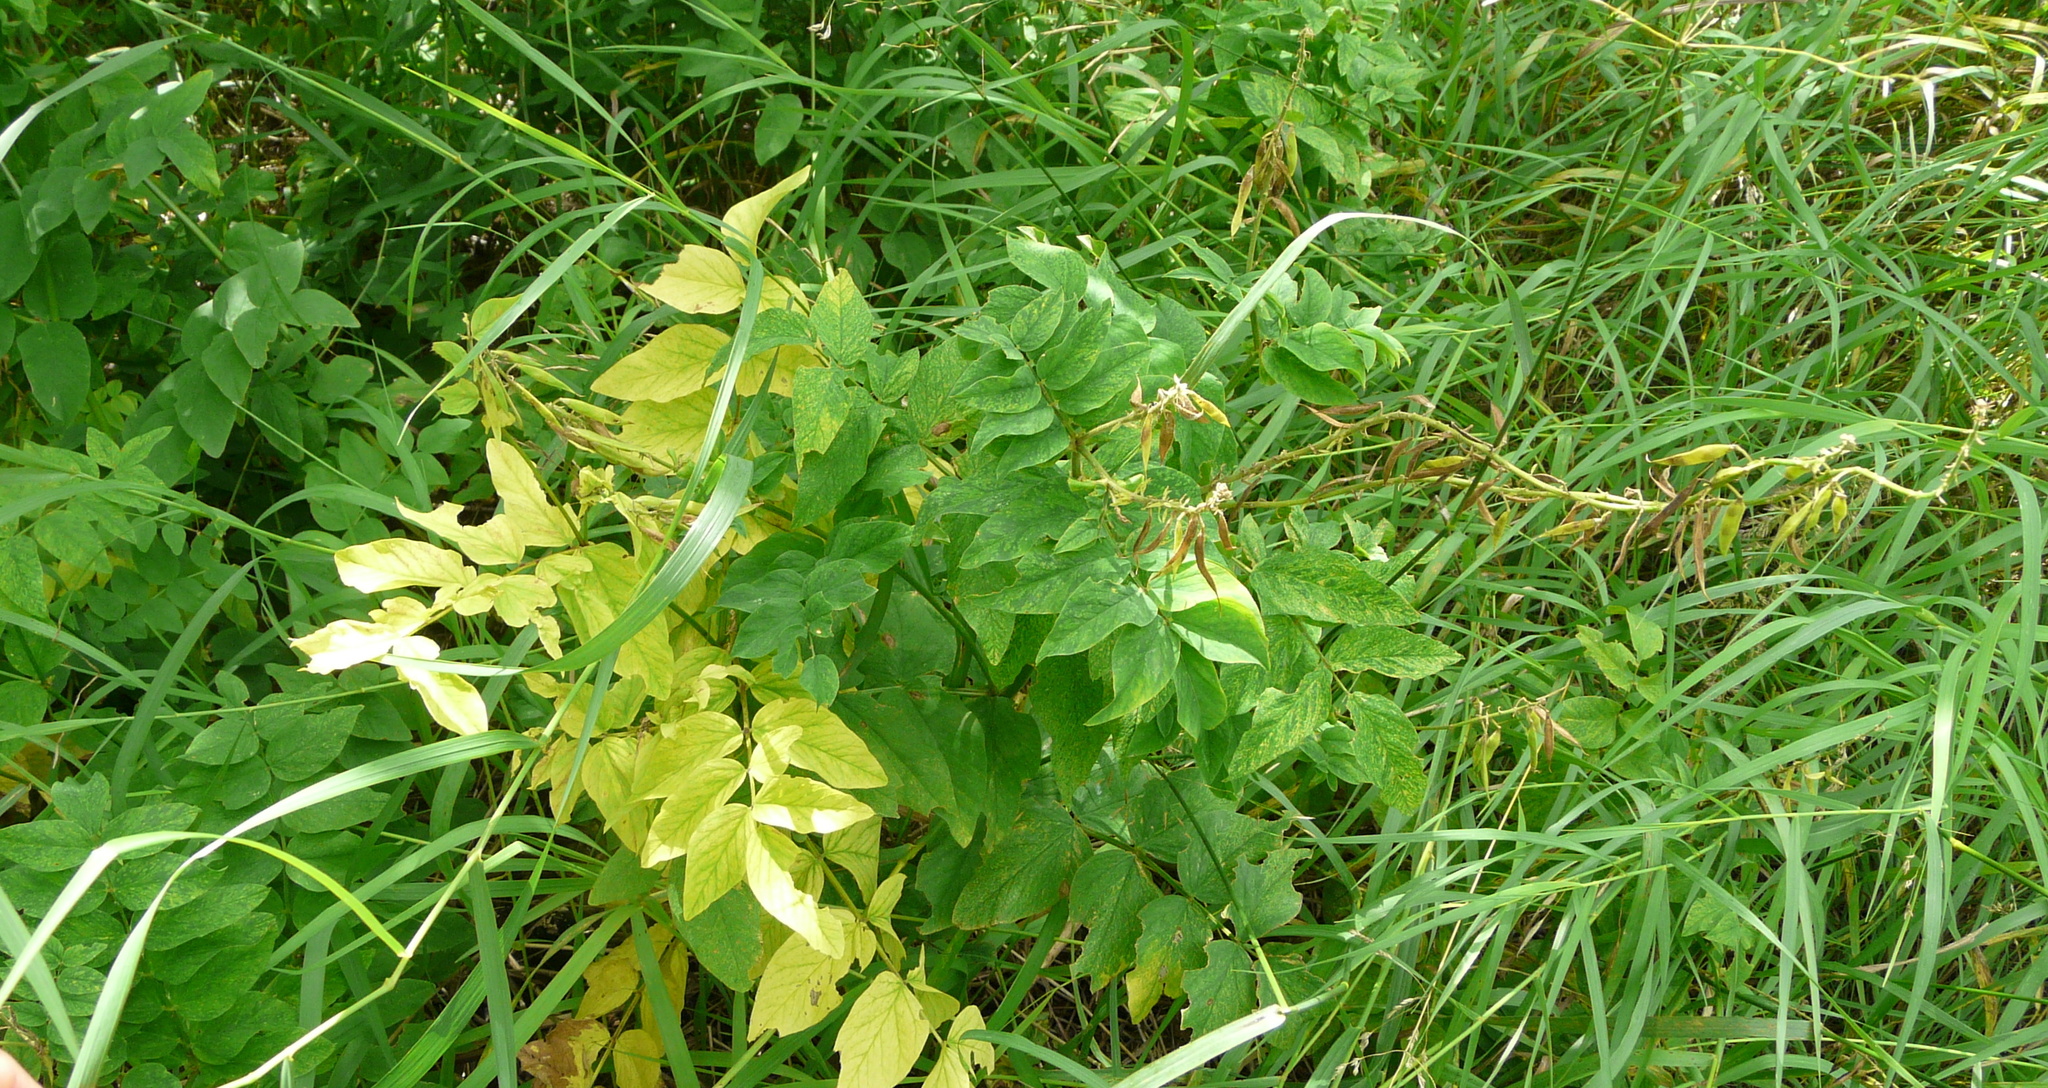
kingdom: Plantae
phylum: Tracheophyta
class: Magnoliopsida
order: Fabales
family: Fabaceae
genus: Galega
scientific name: Galega orientalis
